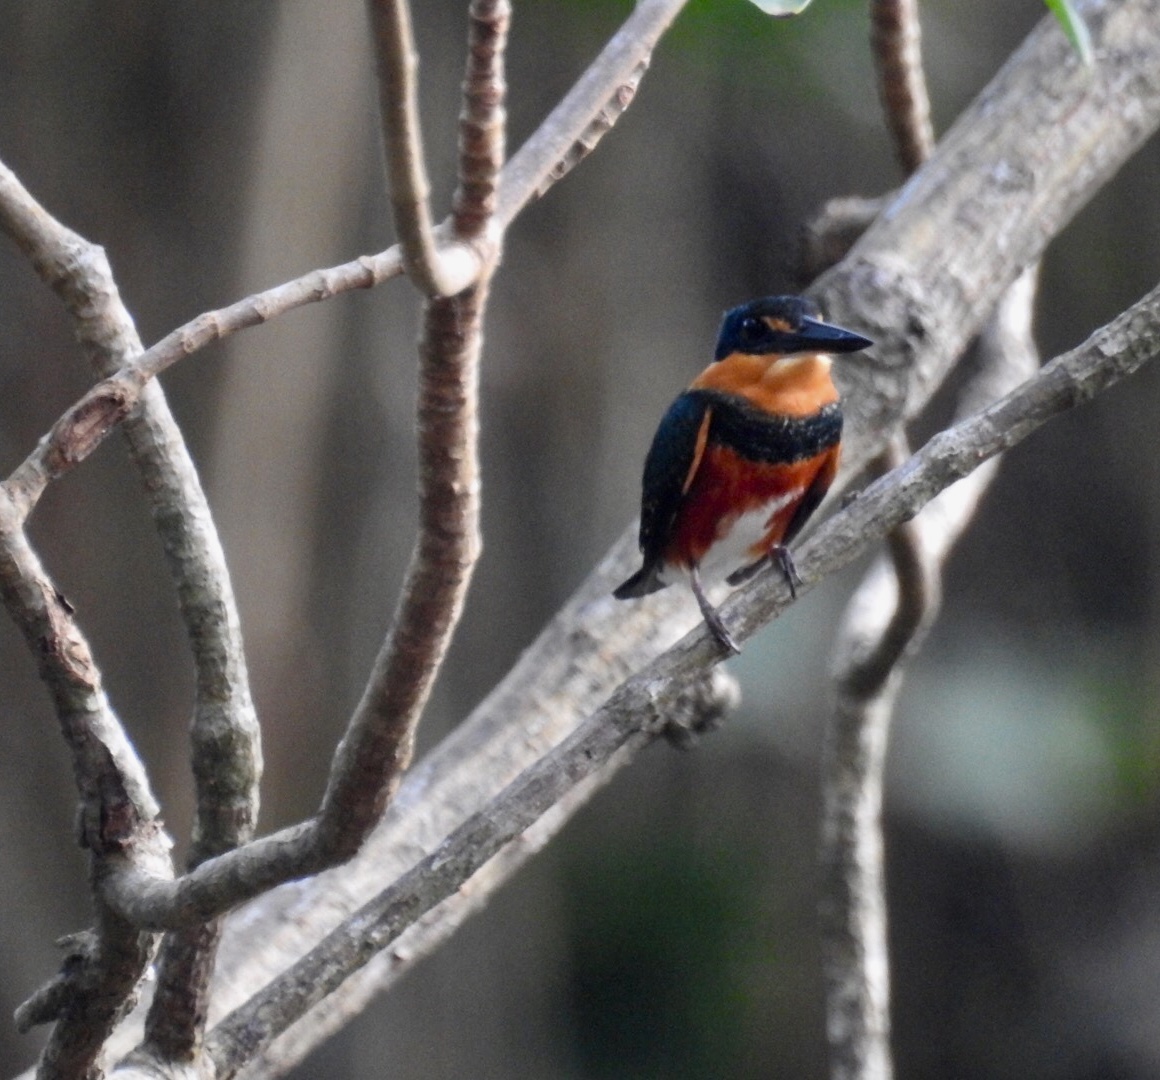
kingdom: Animalia
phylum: Chordata
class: Aves
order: Coraciiformes
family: Alcedinidae
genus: Chloroceryle
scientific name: Chloroceryle aenea
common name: American pygmy kingfisher
